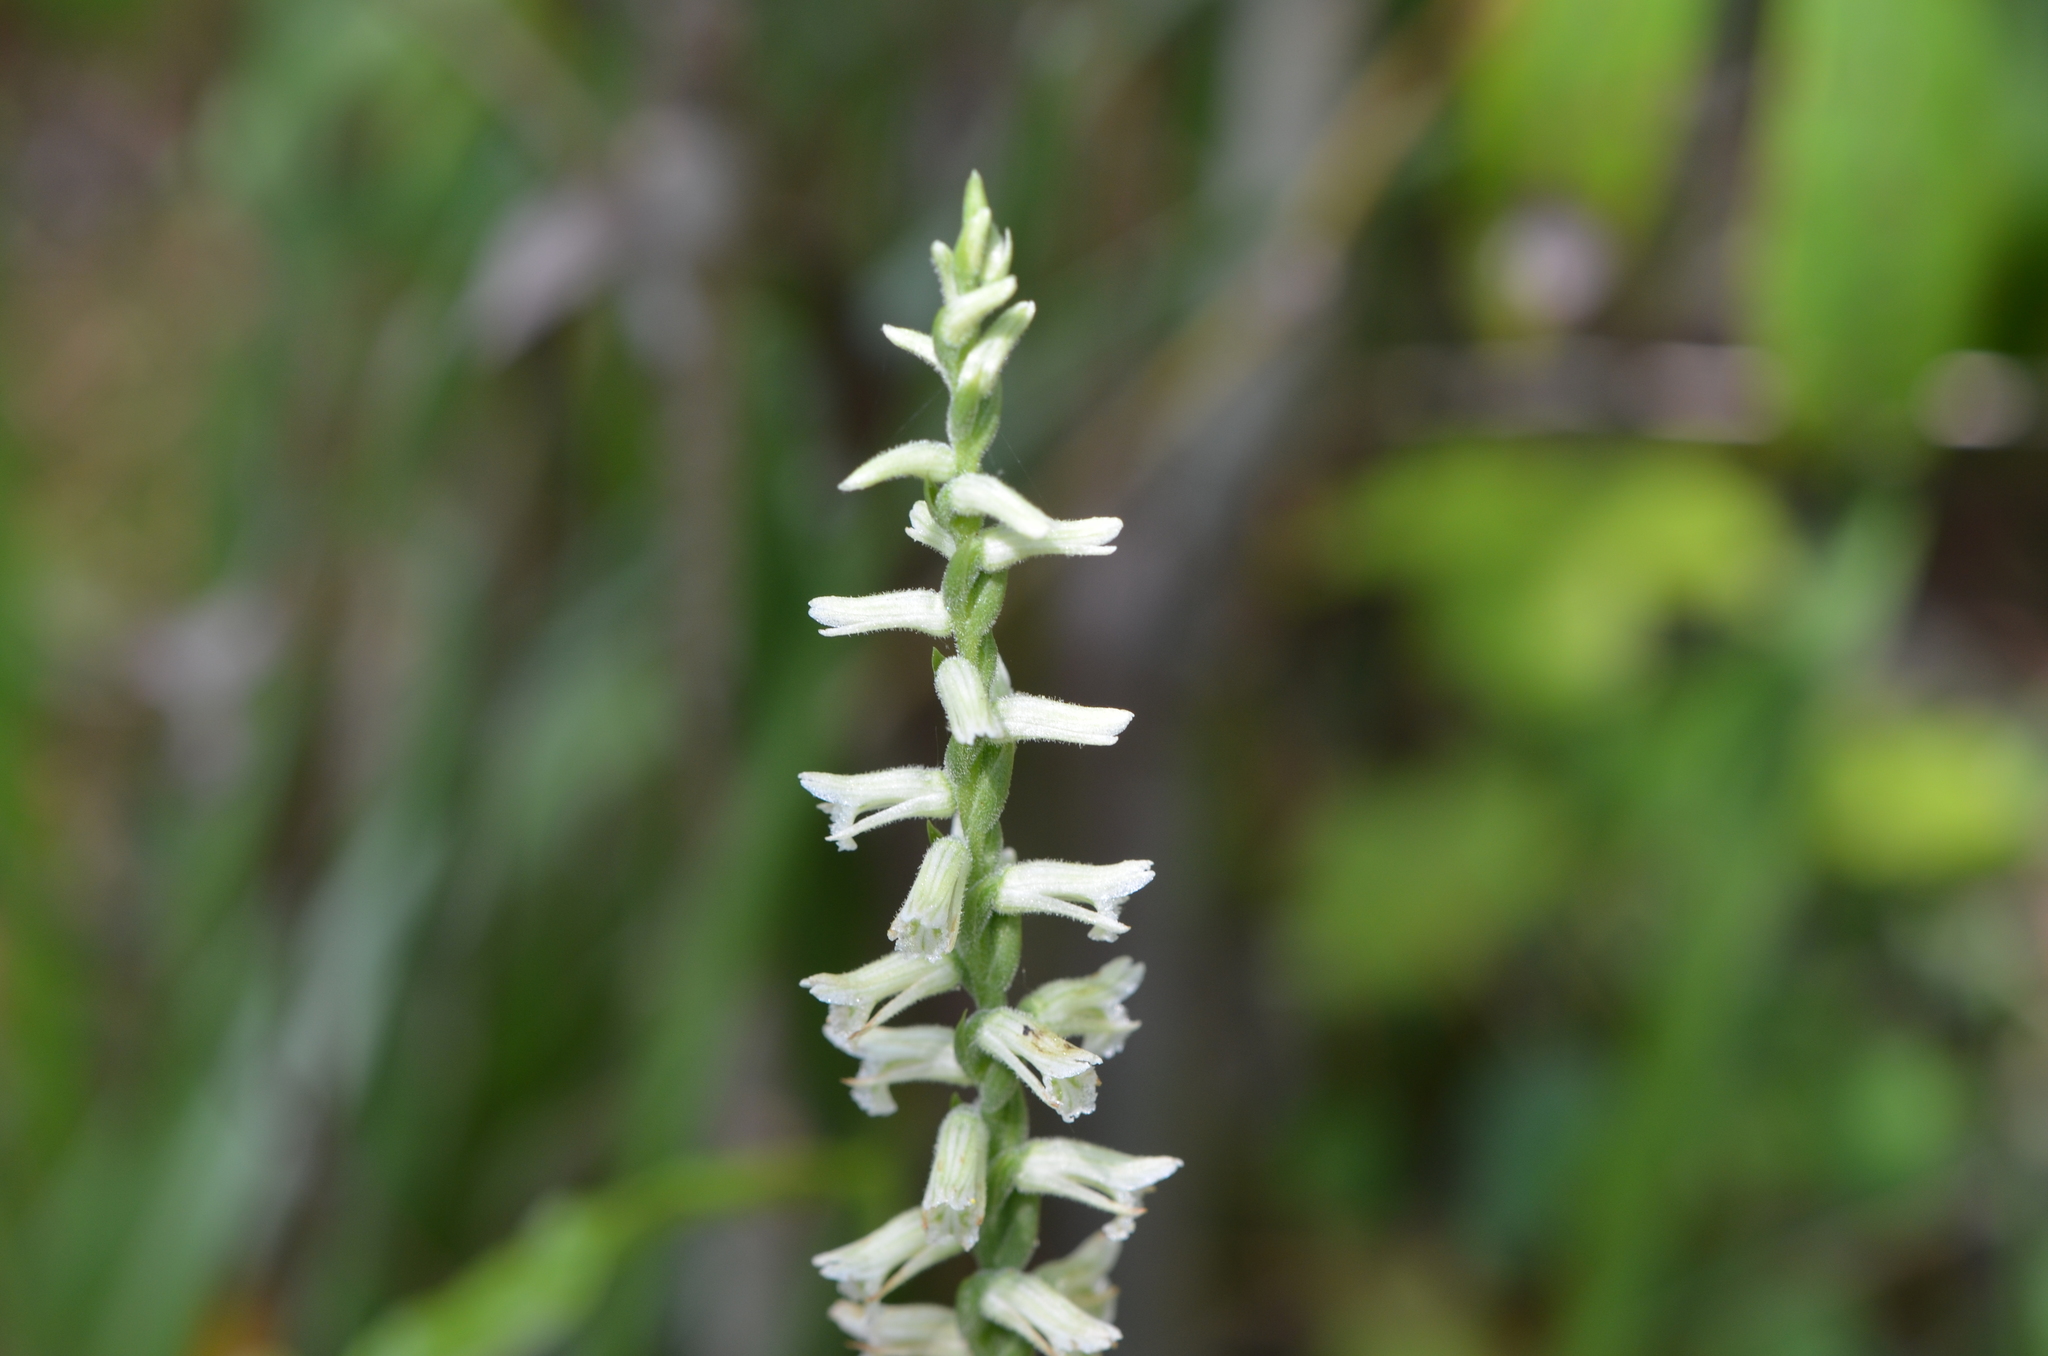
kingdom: Plantae
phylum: Tracheophyta
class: Liliopsida
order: Asparagales
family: Orchidaceae
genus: Spiranthes
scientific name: Spiranthes praecox
